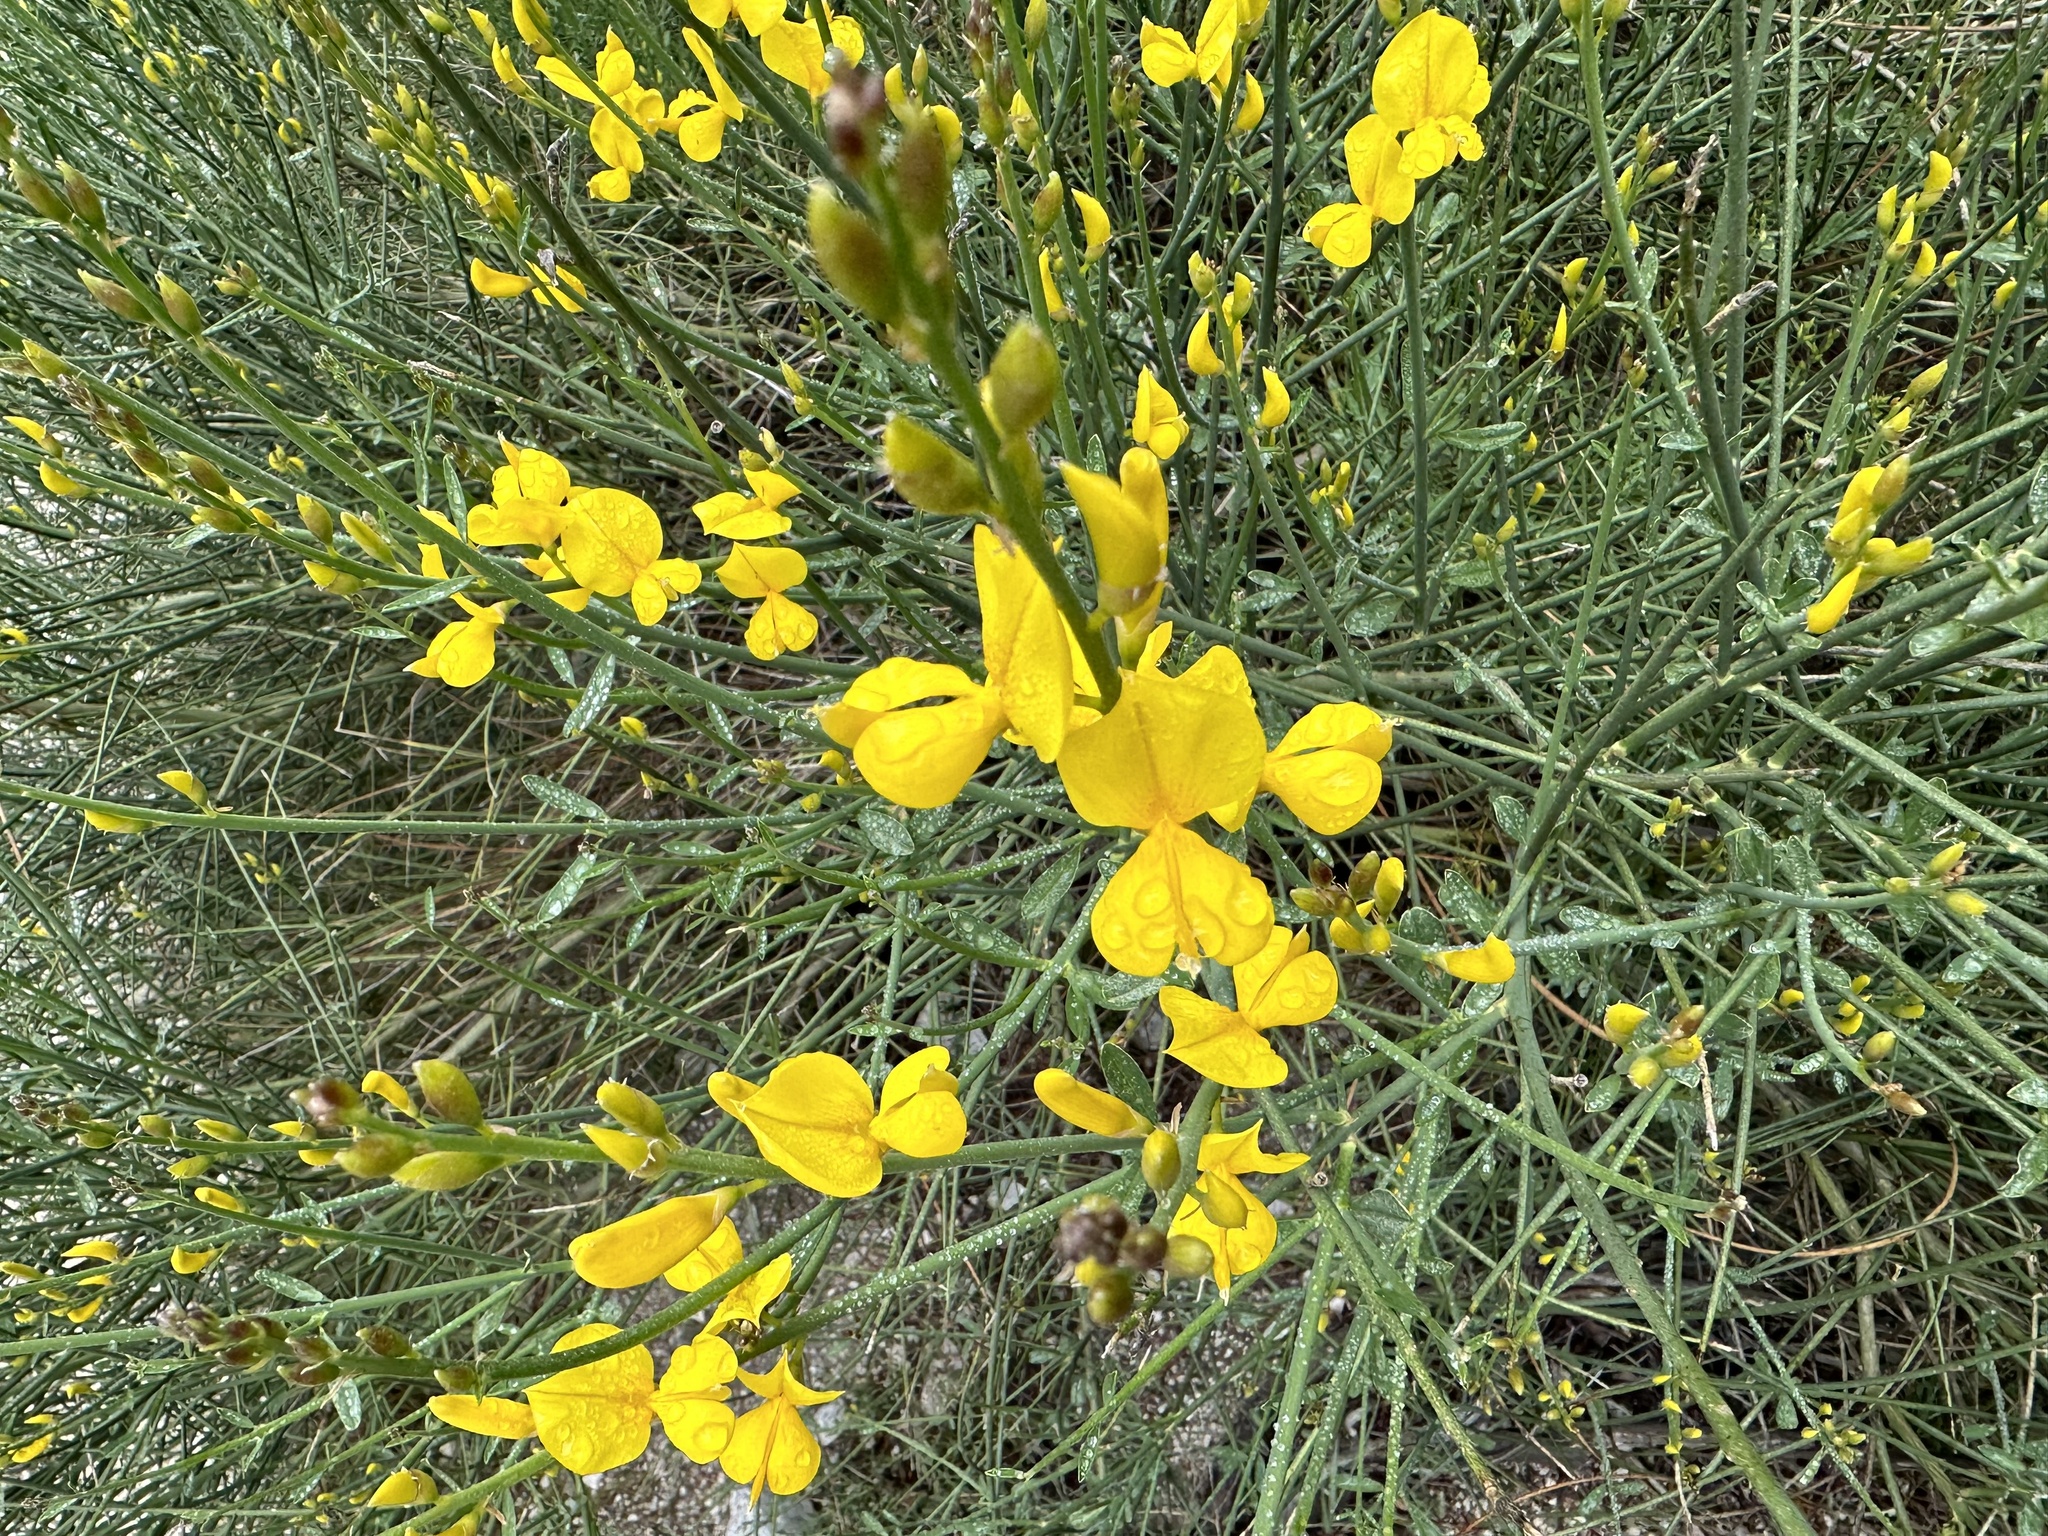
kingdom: Plantae
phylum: Tracheophyta
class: Magnoliopsida
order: Fabales
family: Fabaceae
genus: Spartium
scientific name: Spartium junceum
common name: Spanish broom
